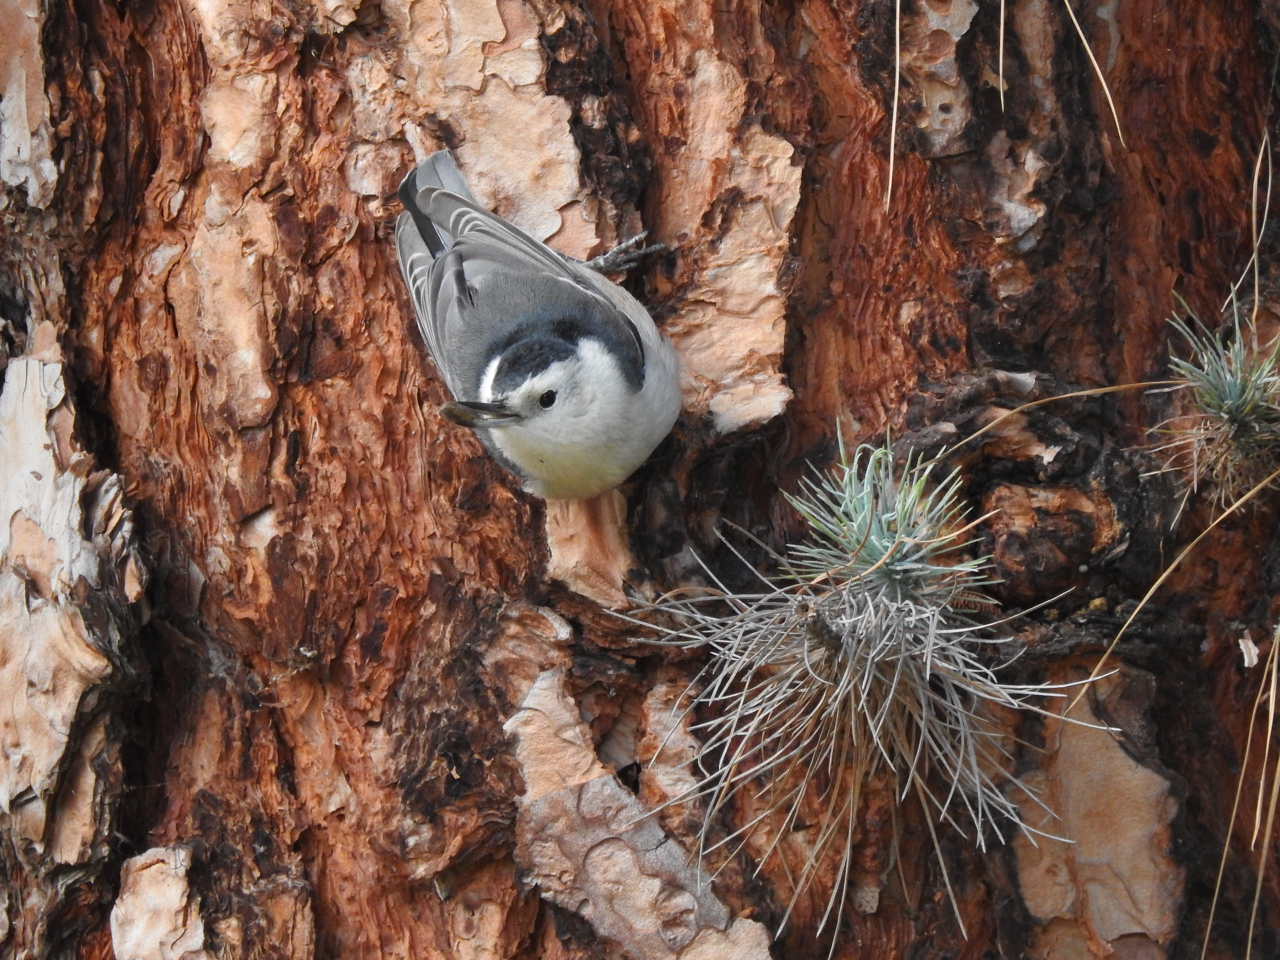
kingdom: Animalia
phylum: Chordata
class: Aves
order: Passeriformes
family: Sittidae
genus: Sitta
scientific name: Sitta carolinensis
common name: White-breasted nuthatch
